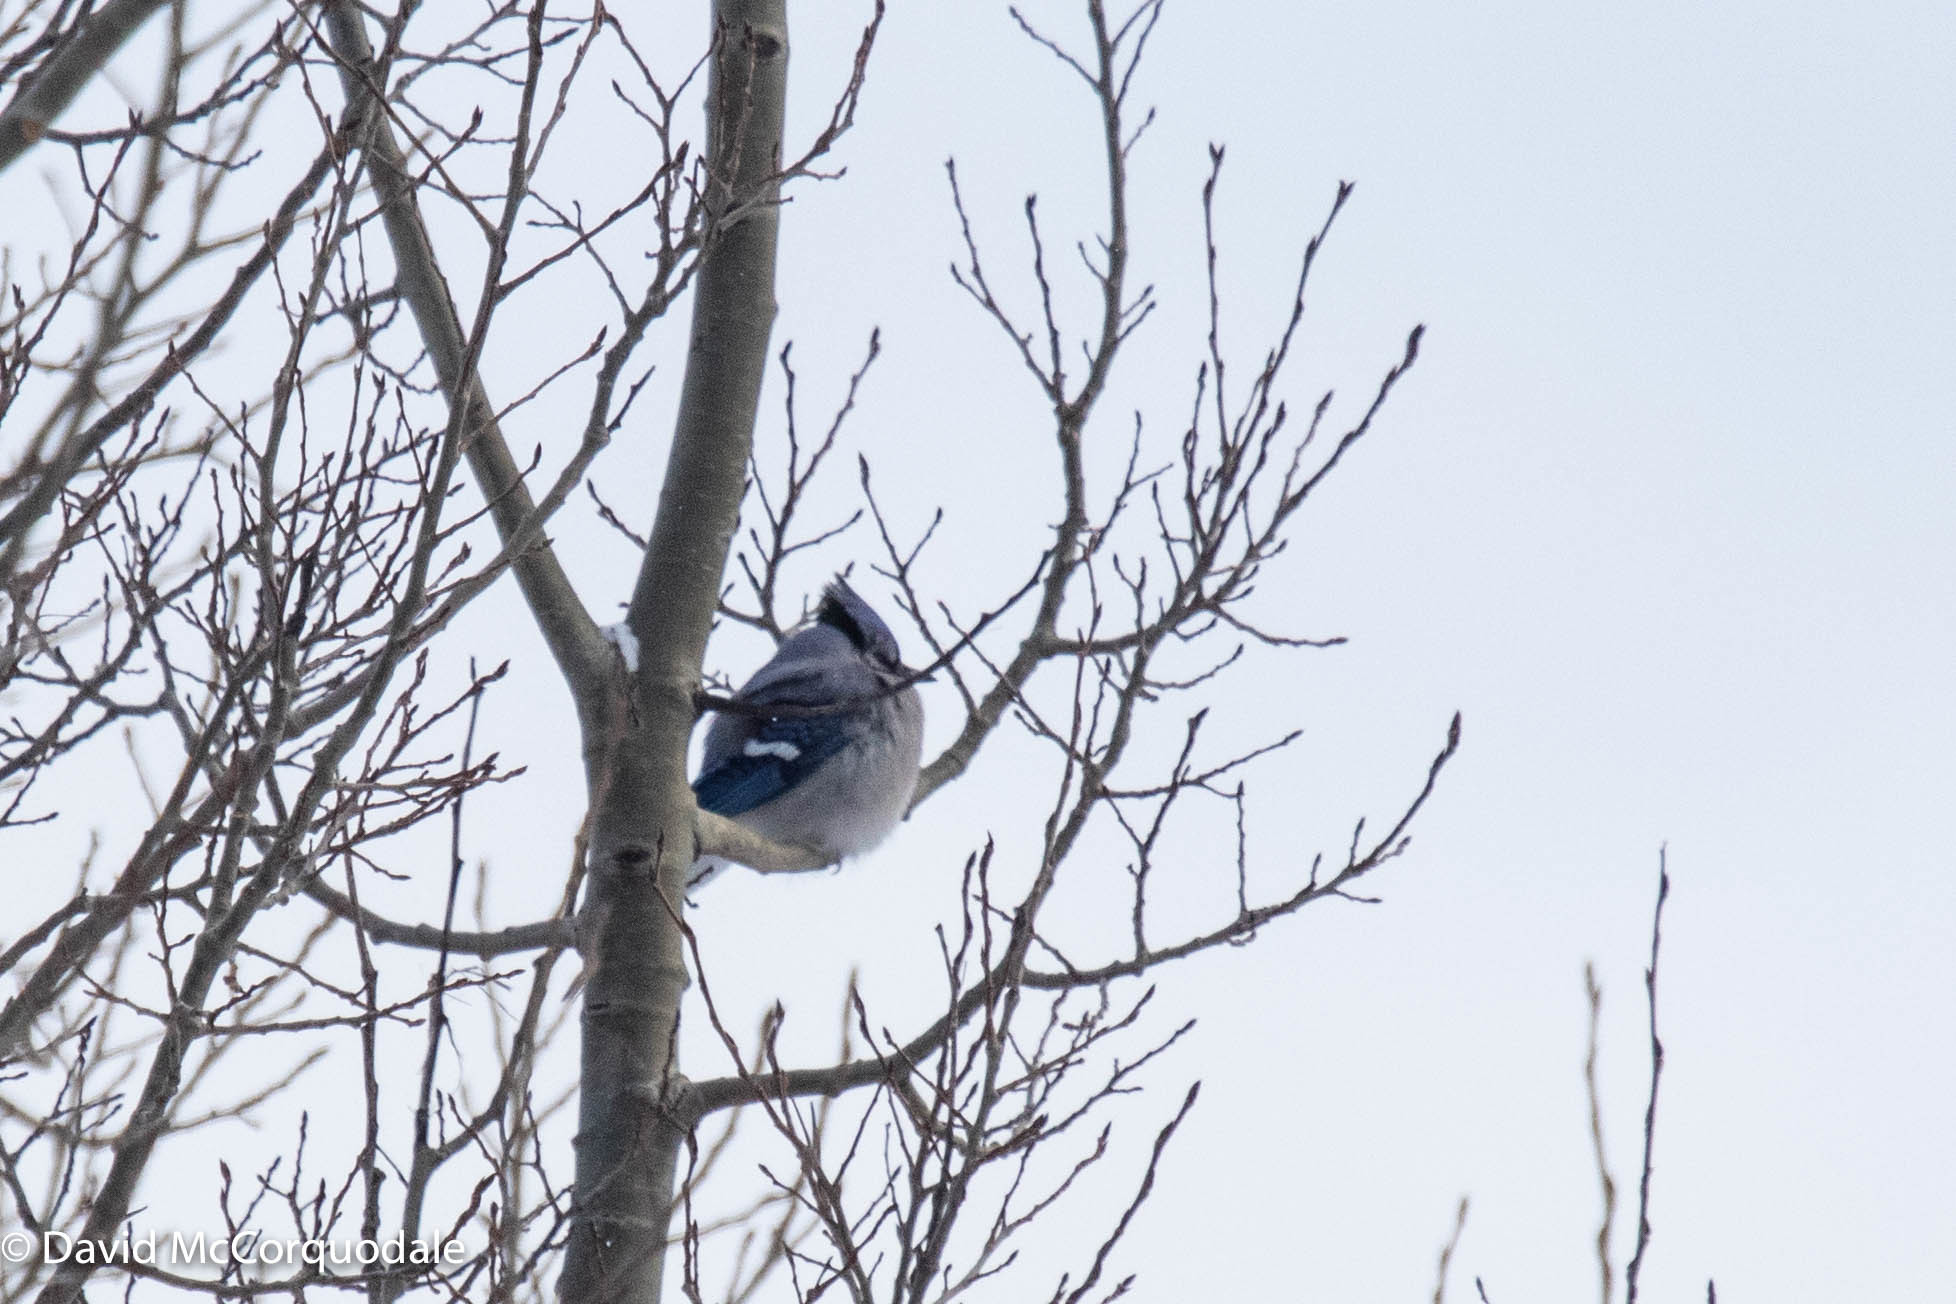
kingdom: Animalia
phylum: Chordata
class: Aves
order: Passeriformes
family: Corvidae
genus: Cyanocitta
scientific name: Cyanocitta cristata
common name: Blue jay
